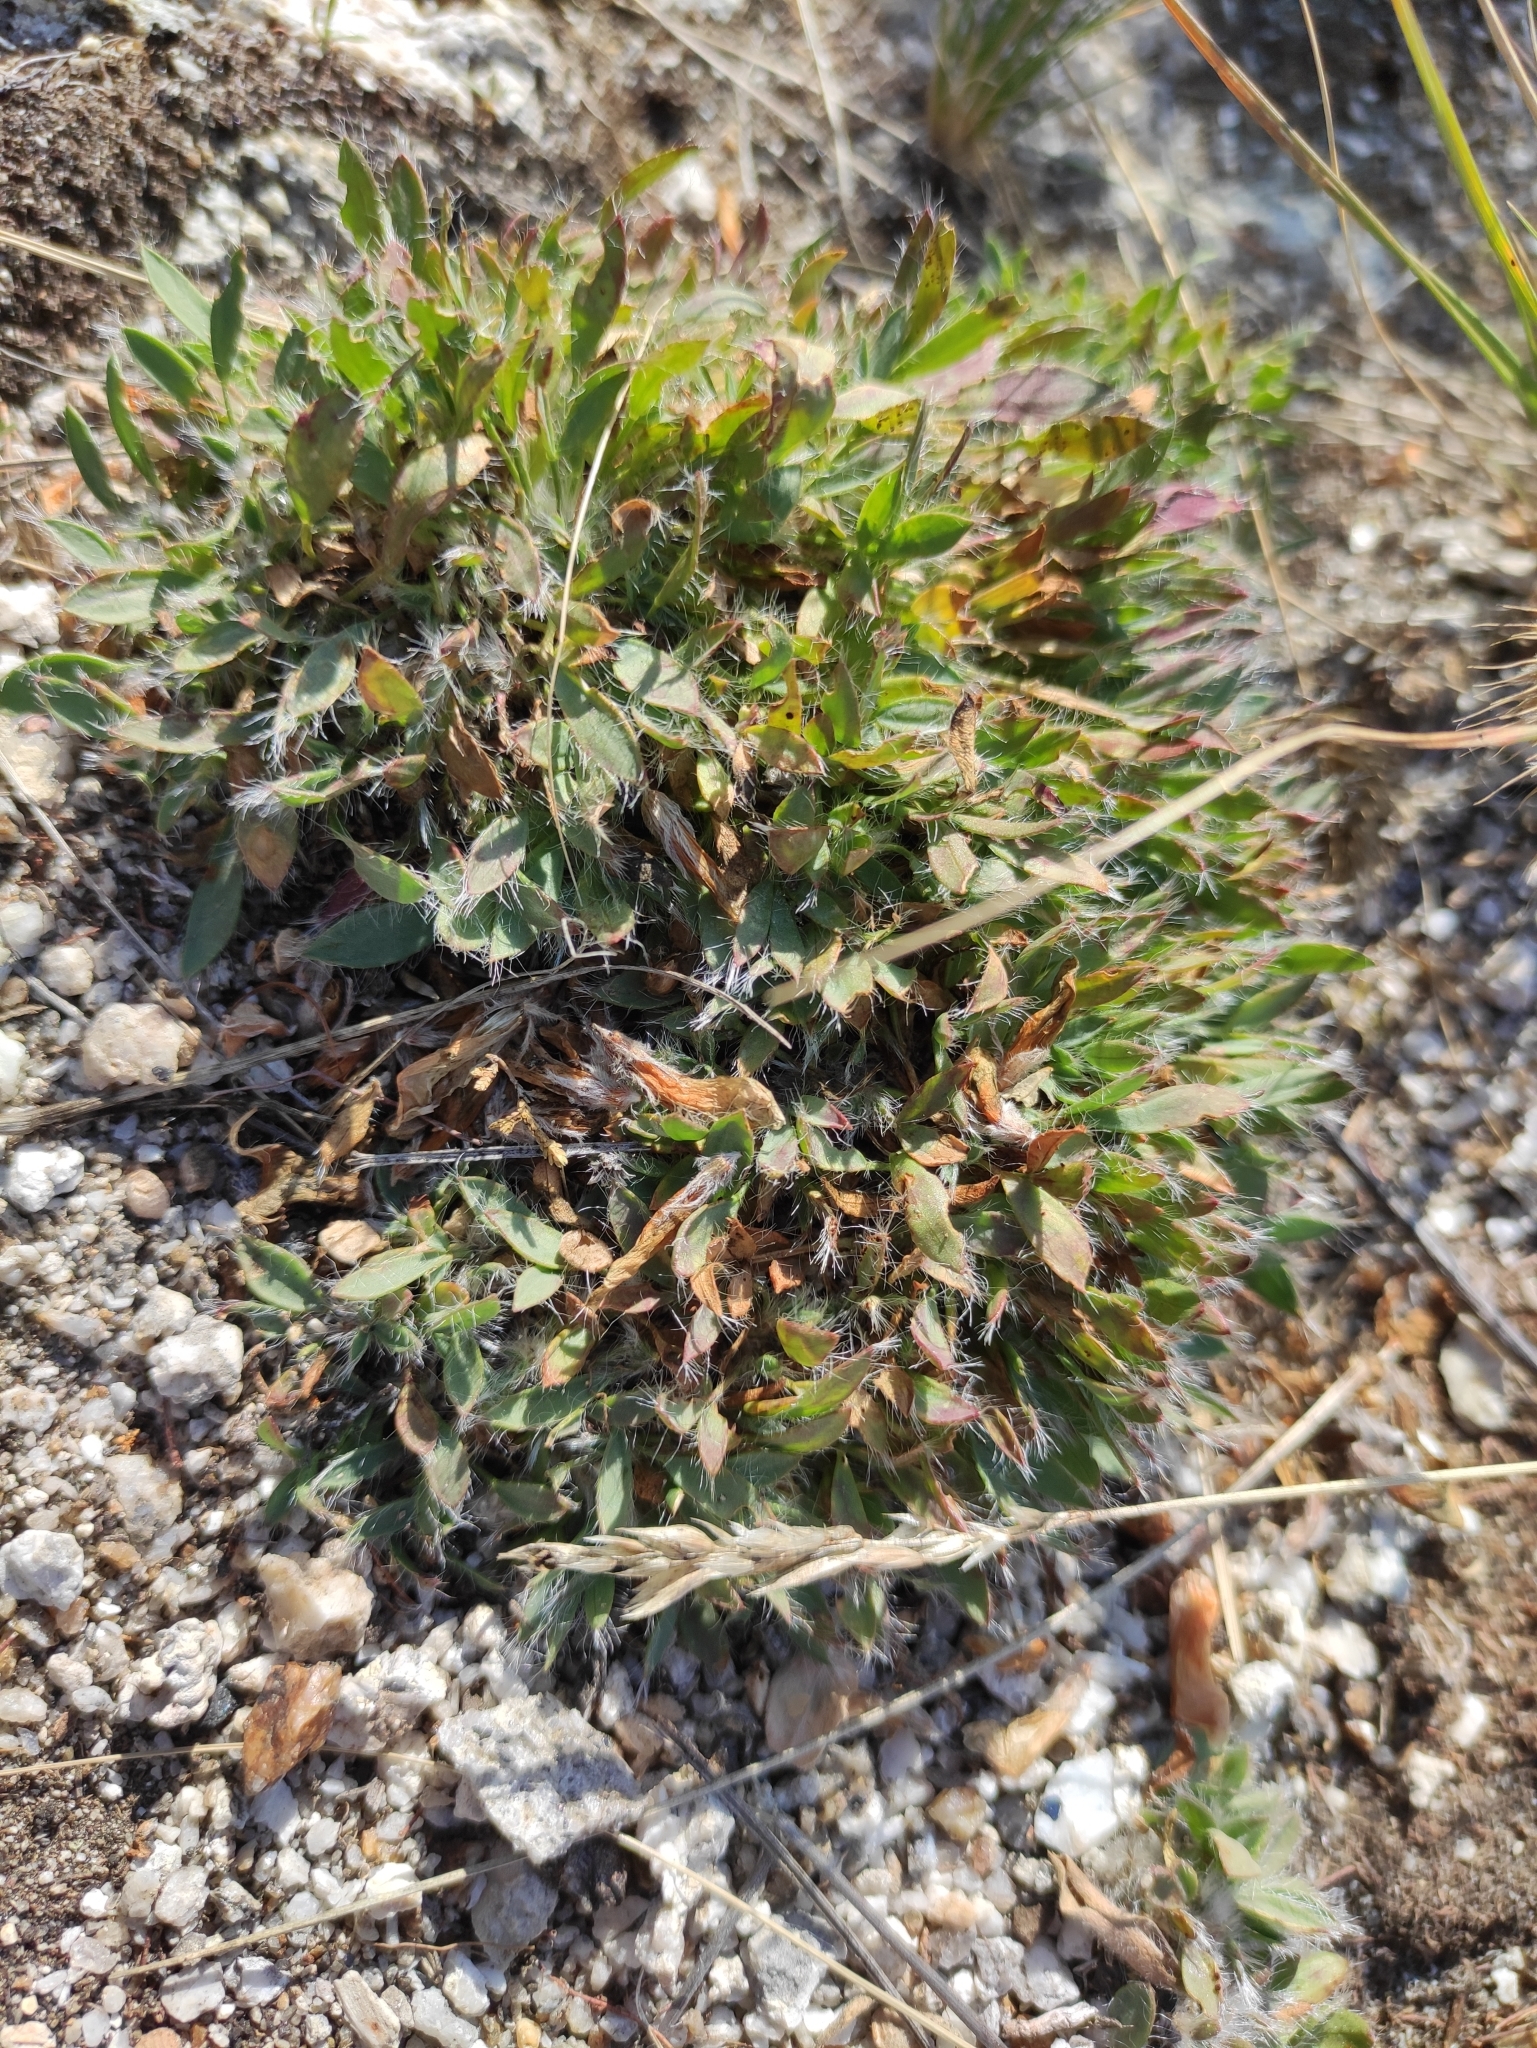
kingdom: Plantae
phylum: Tracheophyta
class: Magnoliopsida
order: Fabales
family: Fabaceae
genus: Oxytropis
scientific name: Oxytropis triphylla
